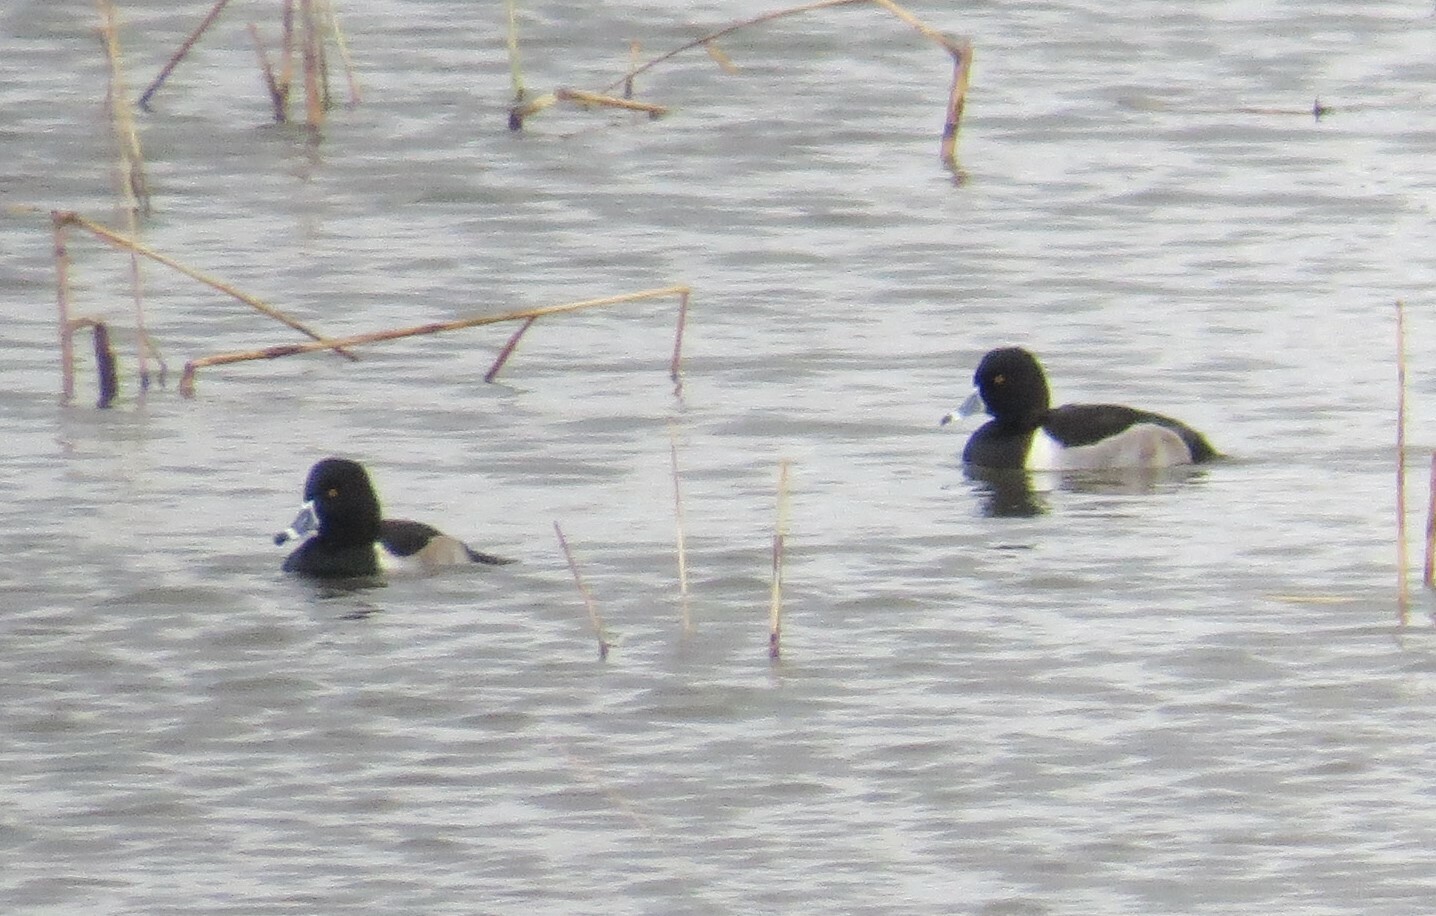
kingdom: Animalia
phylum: Chordata
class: Aves
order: Anseriformes
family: Anatidae
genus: Aythya
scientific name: Aythya collaris
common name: Ring-necked duck
